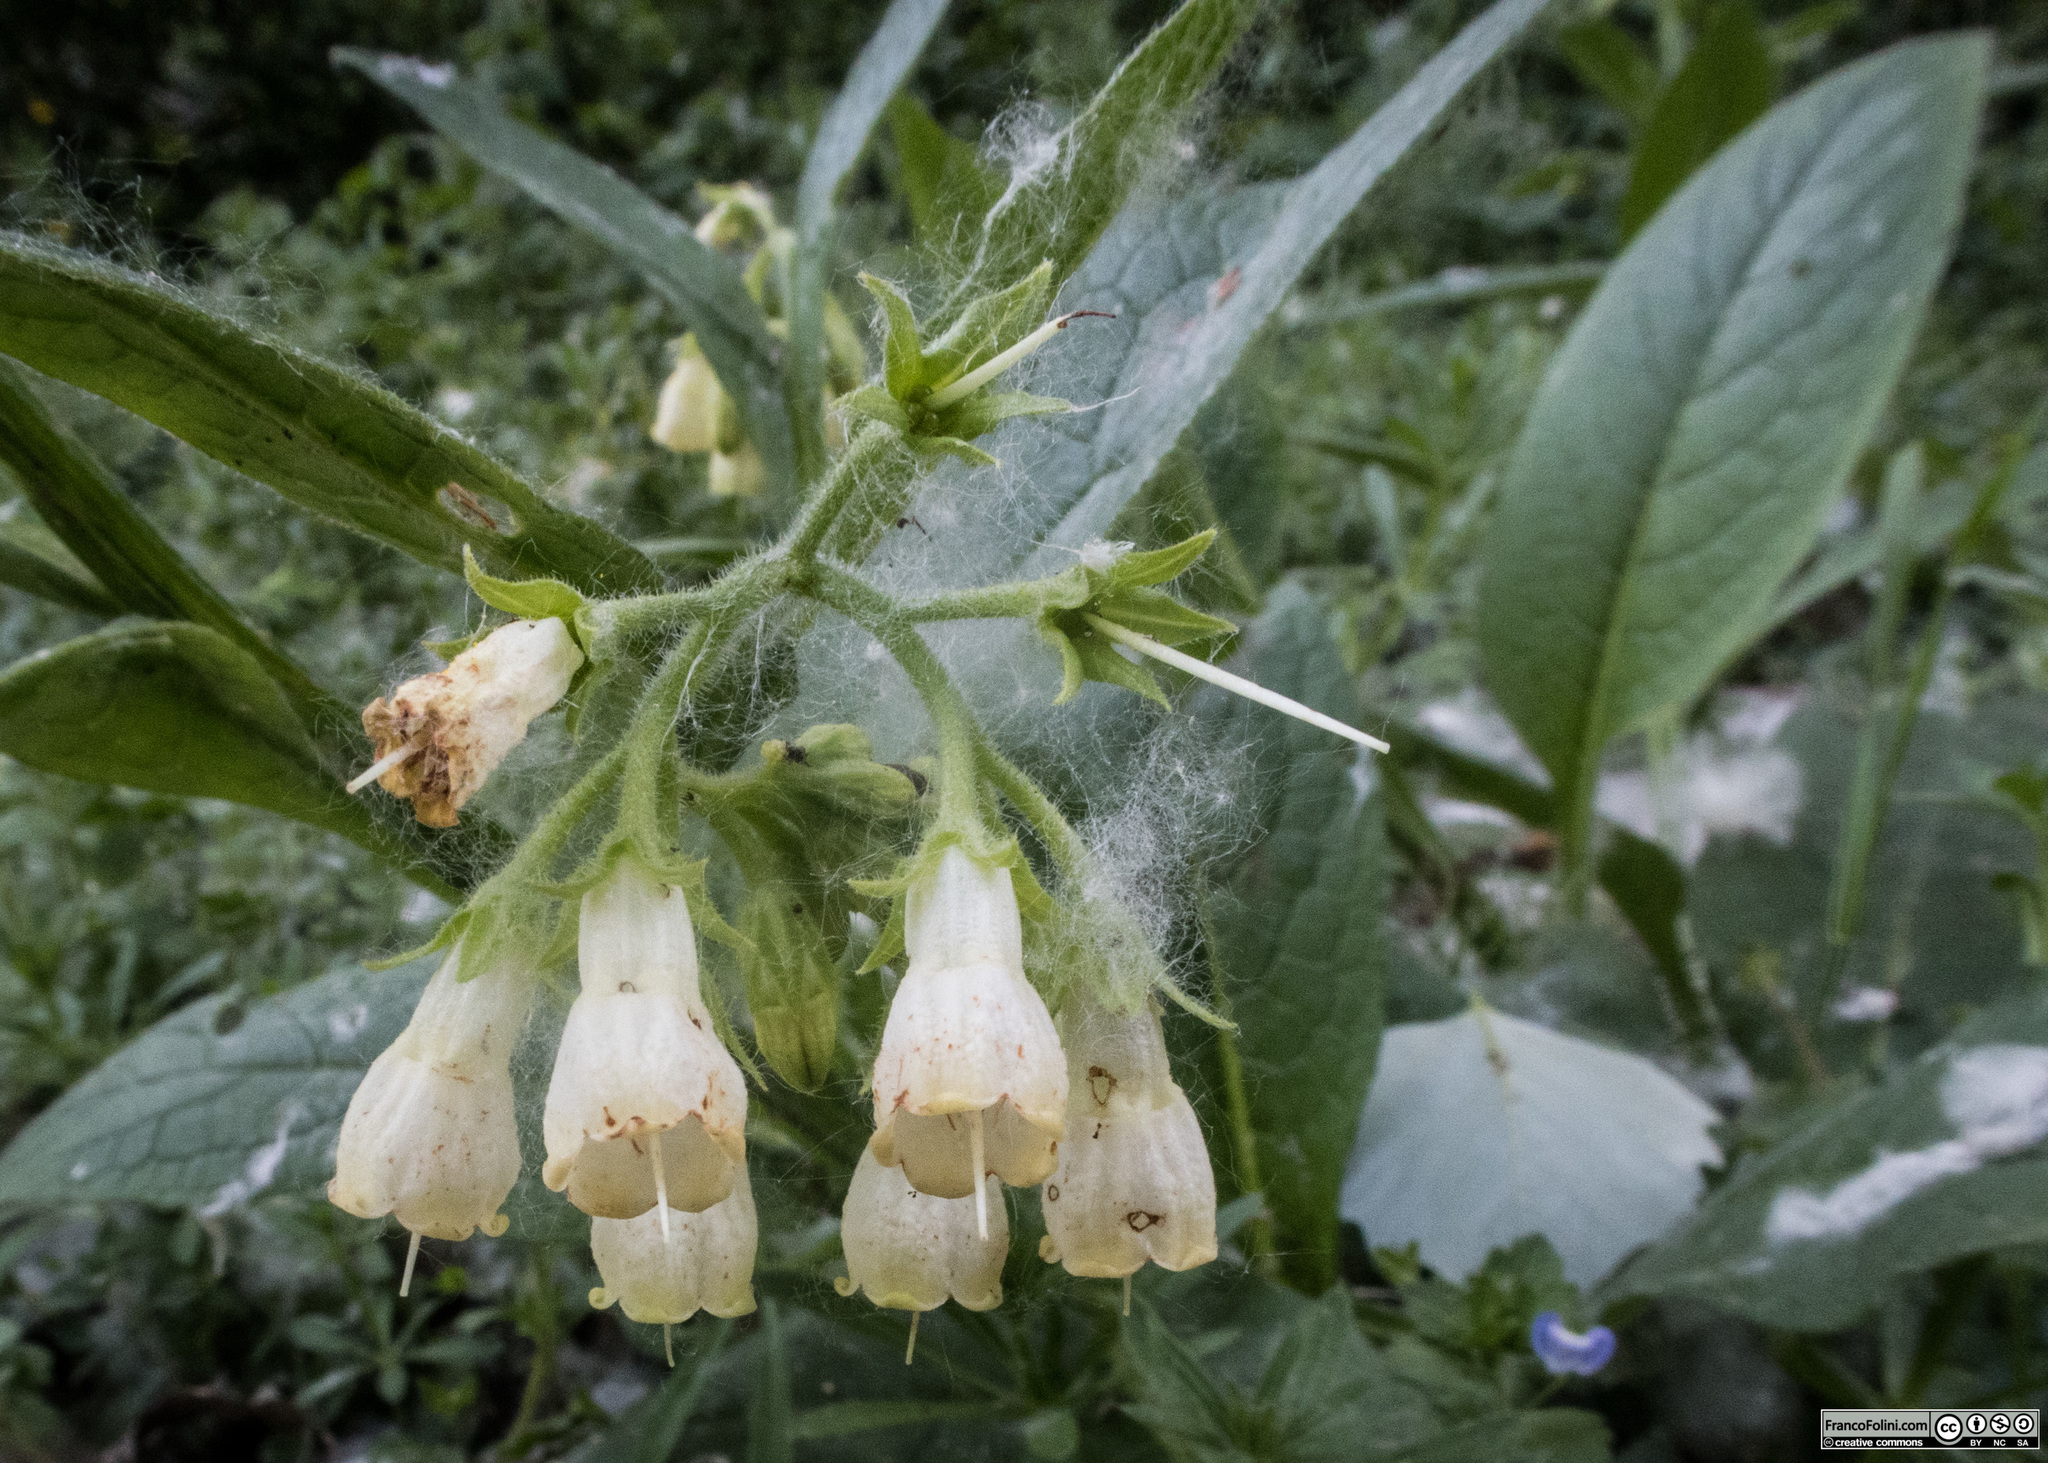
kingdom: Plantae
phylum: Tracheophyta
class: Magnoliopsida
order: Boraginales
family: Boraginaceae
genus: Symphytum
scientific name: Symphytum tuberosum
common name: Tuberous comfrey
